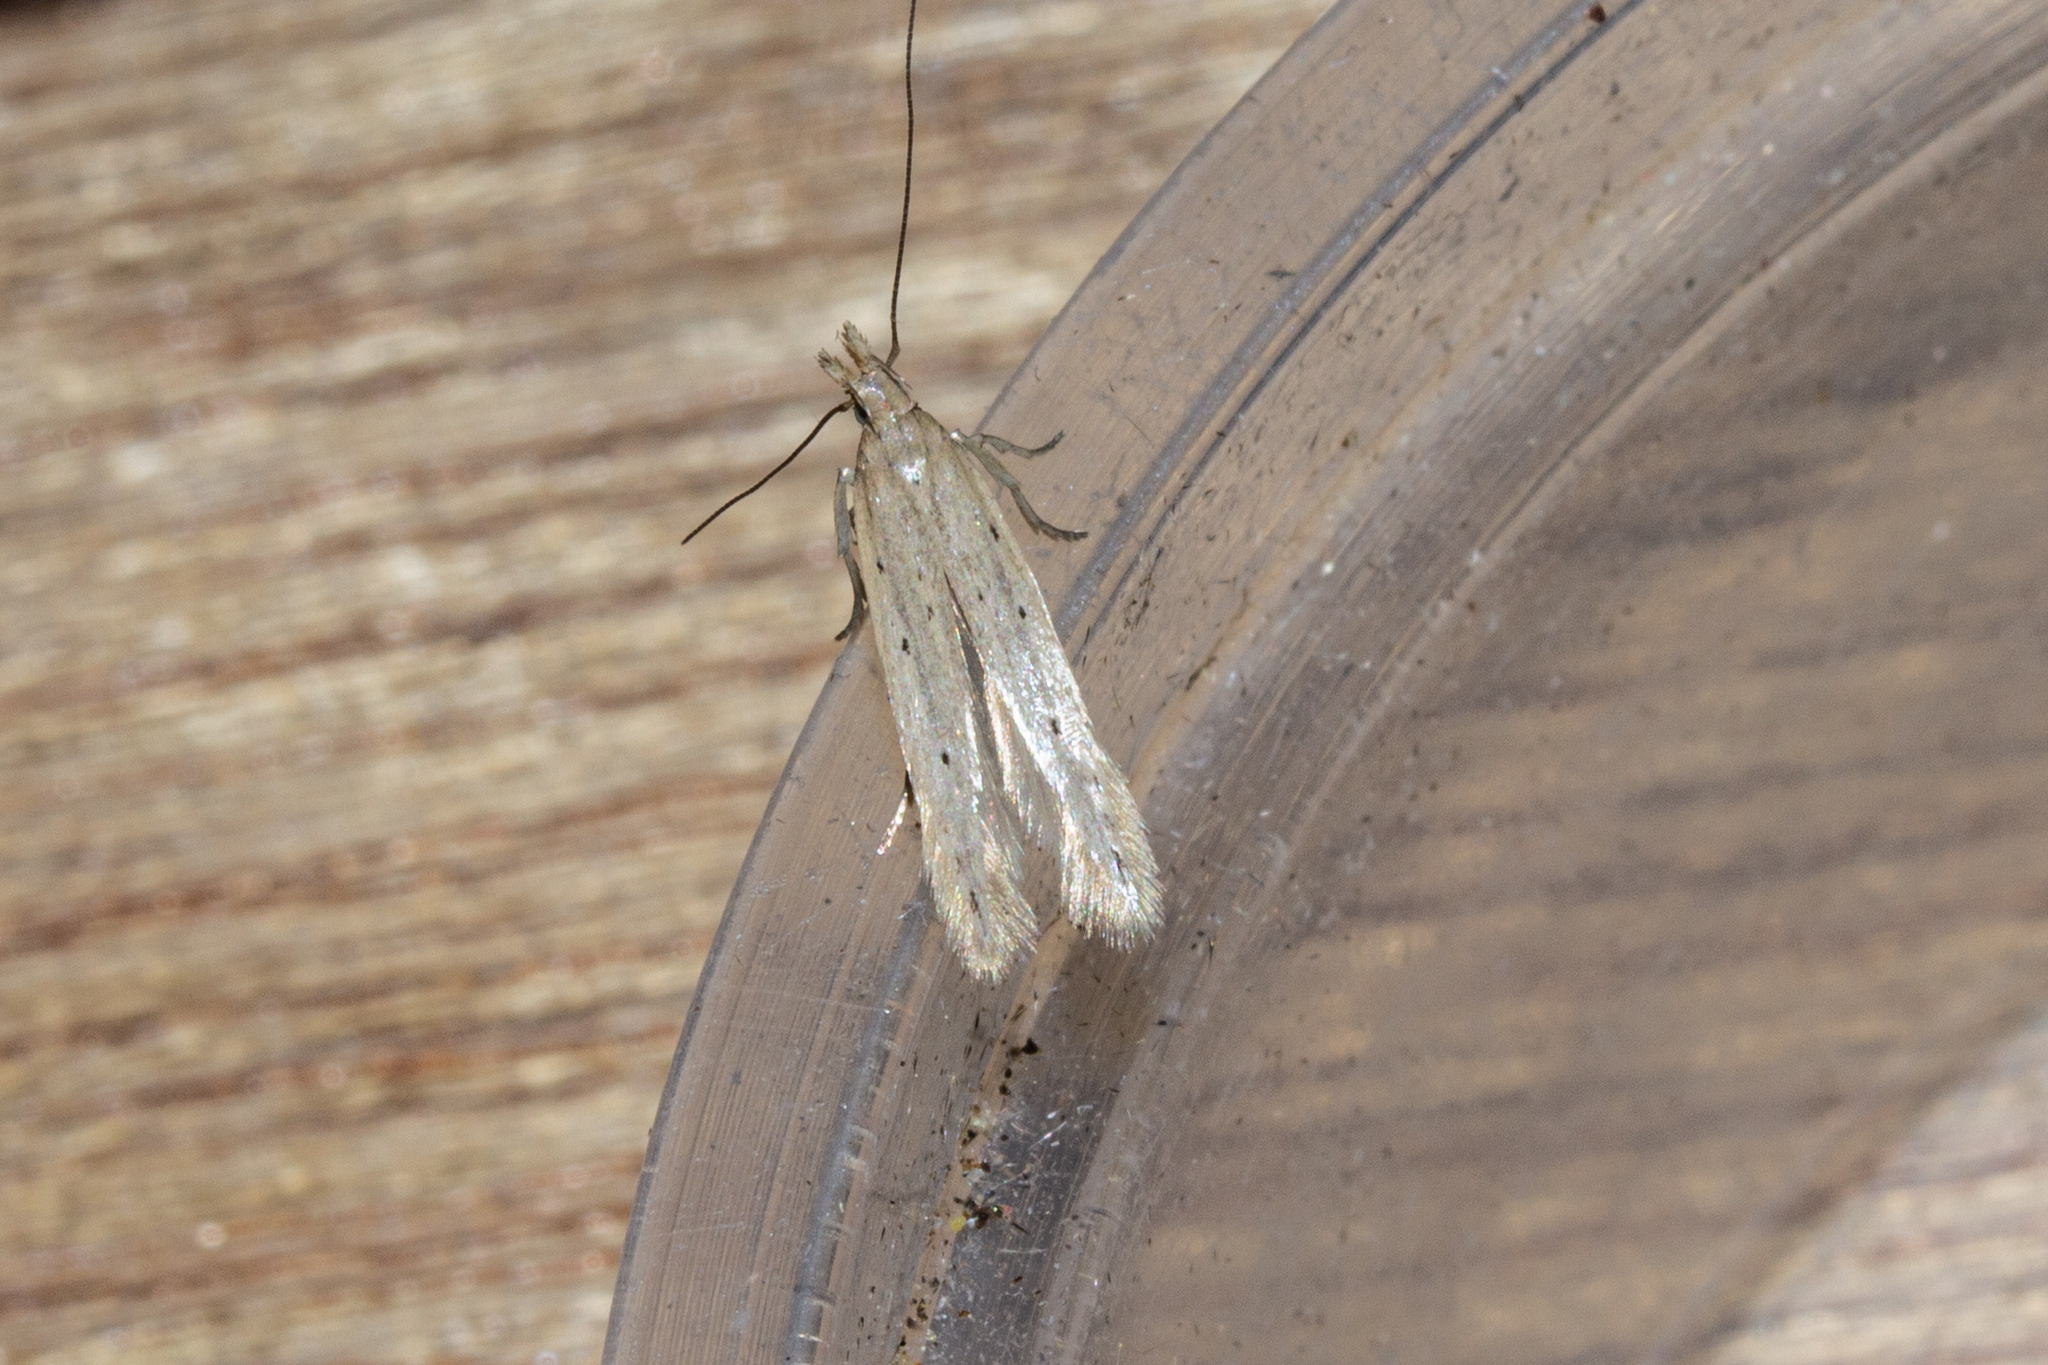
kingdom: Animalia
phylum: Arthropoda
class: Insecta
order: Lepidoptera
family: Gelechiidae
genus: Epiphthora
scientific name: Epiphthora calamogonus
